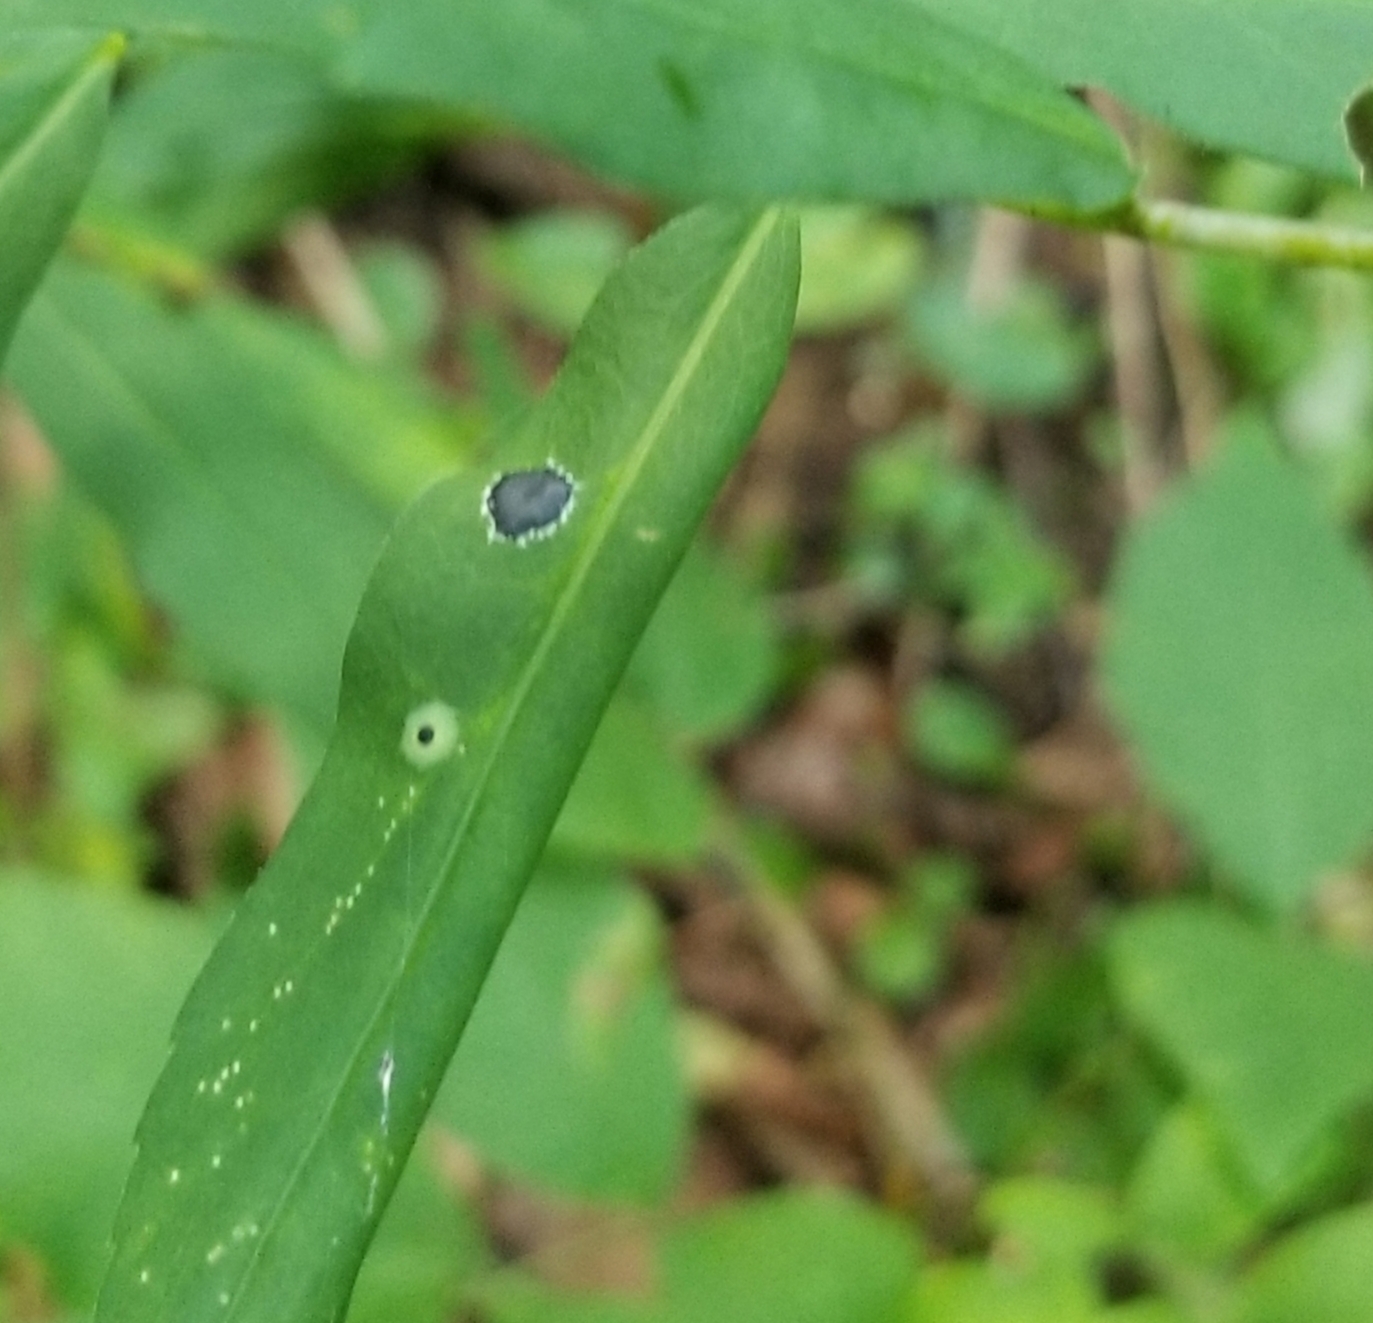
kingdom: Plantae
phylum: Tracheophyta
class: Magnoliopsida
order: Asterales
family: Asteraceae
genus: Solidago
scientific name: Solidago caesia
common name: Woodland goldenrod
